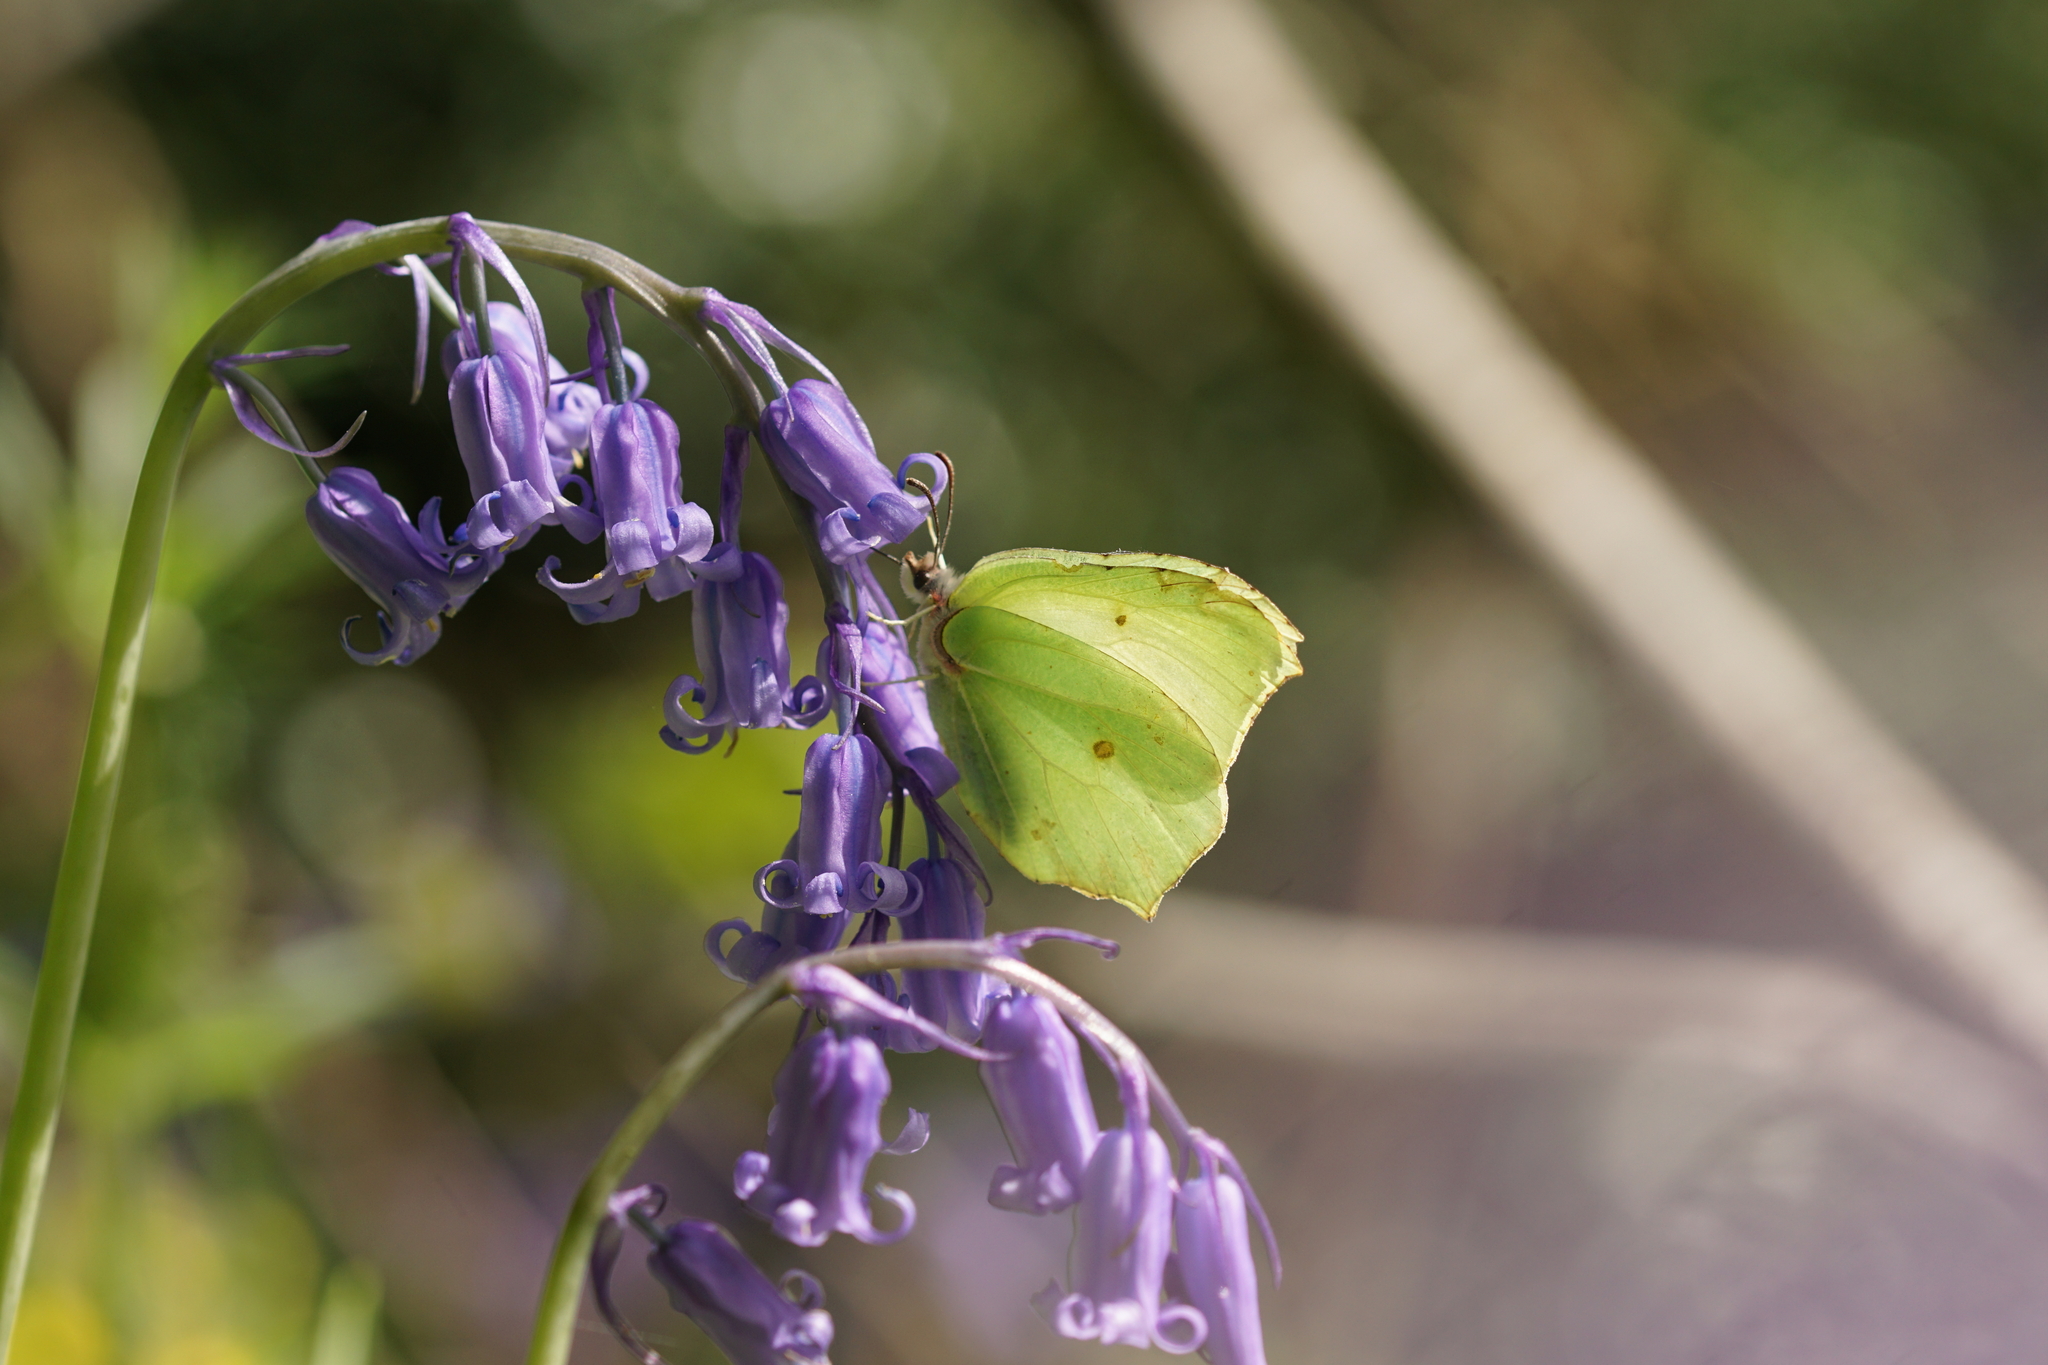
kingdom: Animalia
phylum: Arthropoda
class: Insecta
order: Lepidoptera
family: Pieridae
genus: Gonepteryx
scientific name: Gonepteryx rhamni
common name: Brimstone
